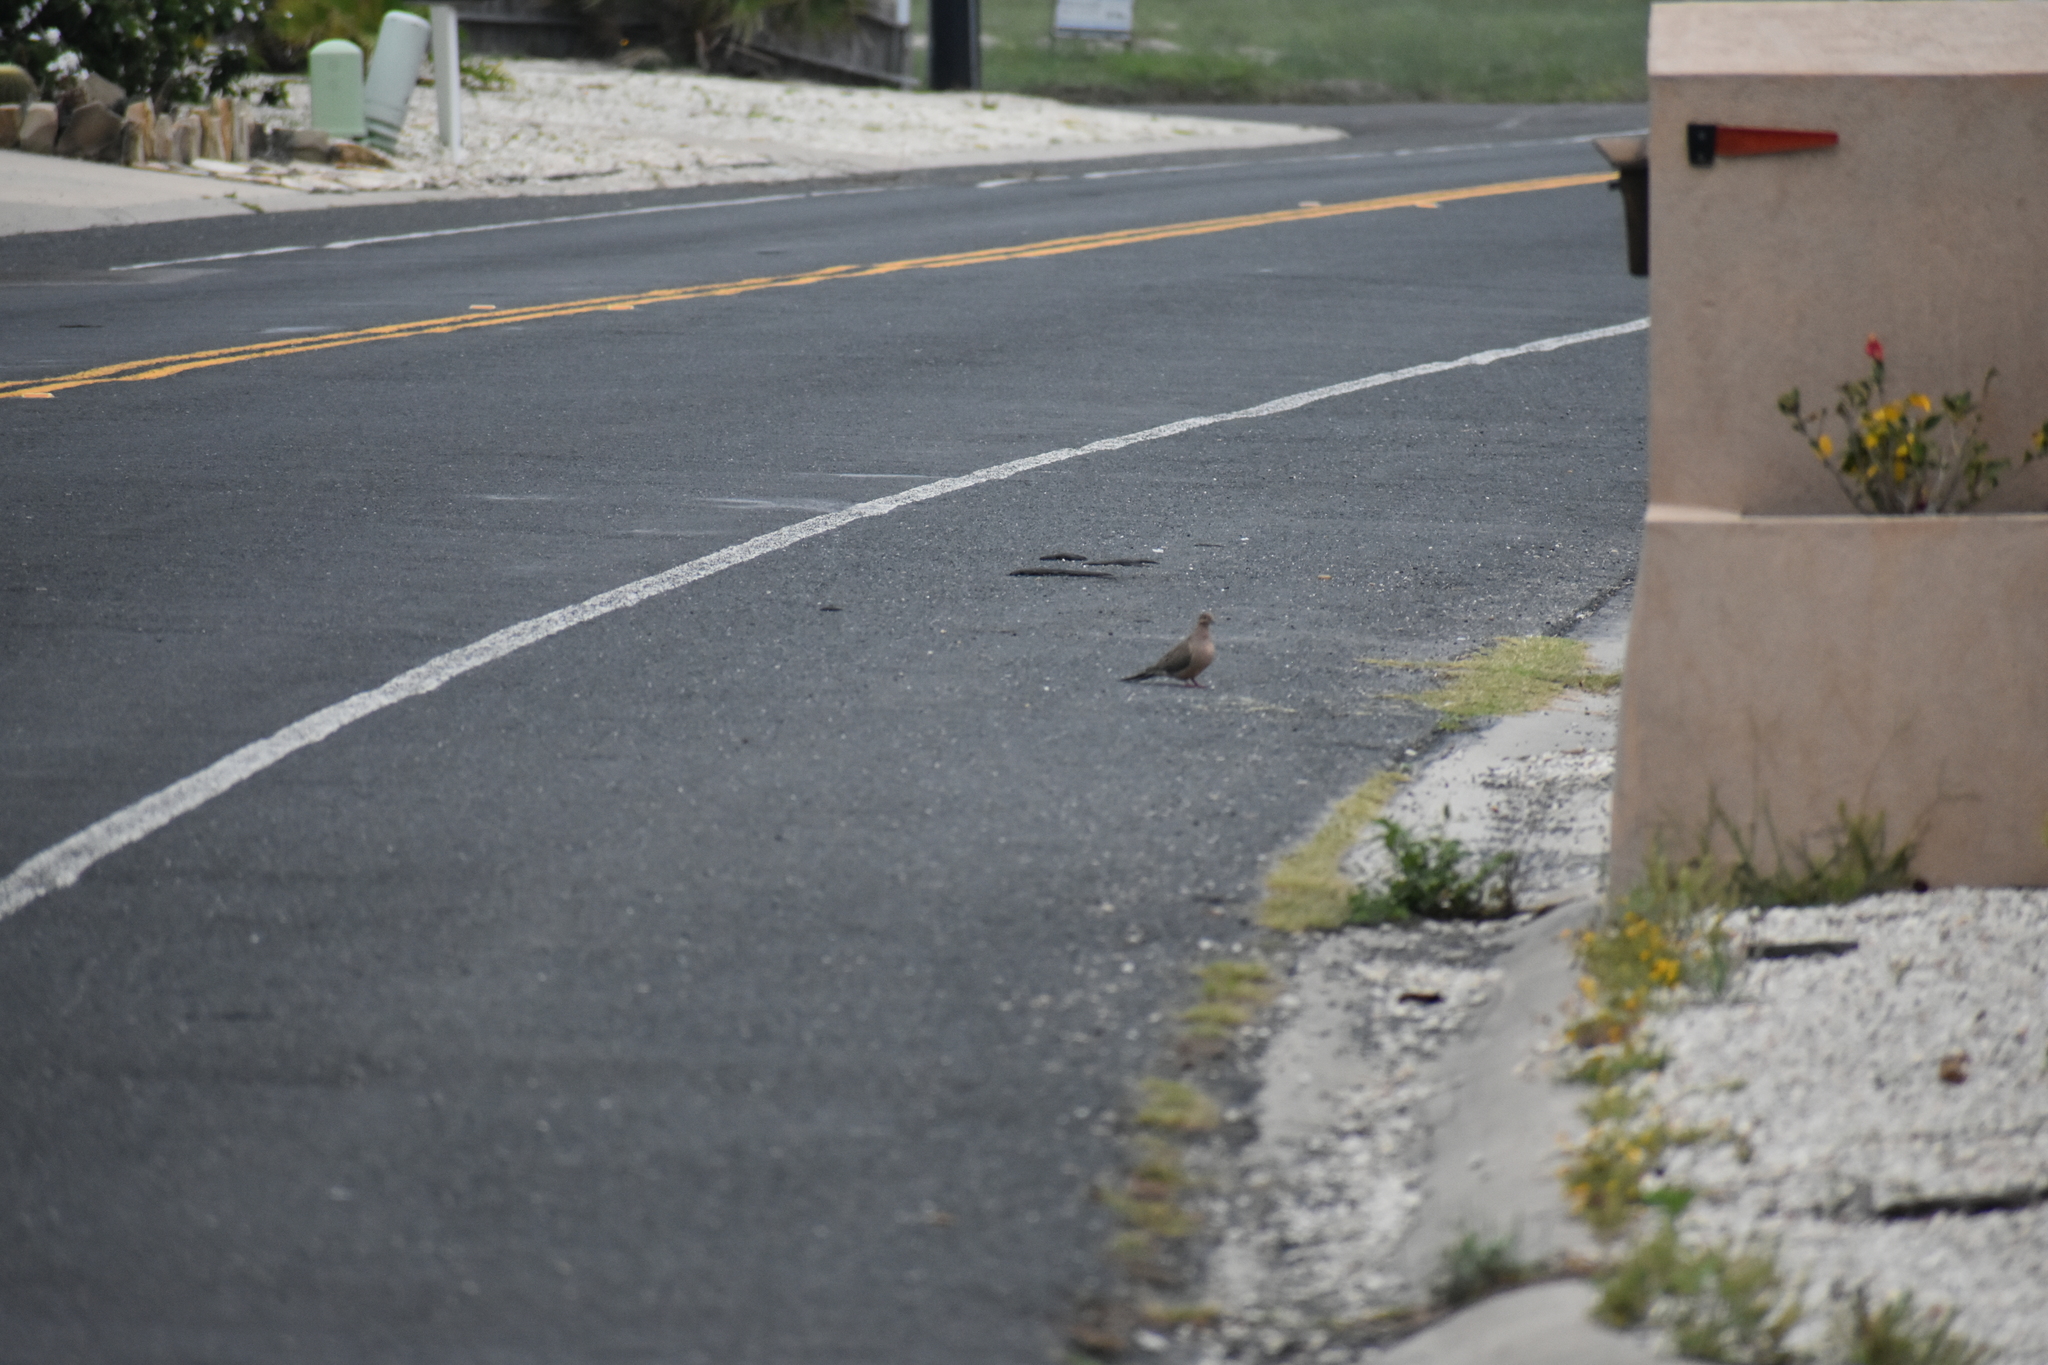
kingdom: Animalia
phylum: Chordata
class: Aves
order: Columbiformes
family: Columbidae
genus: Zenaida
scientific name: Zenaida macroura
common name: Mourning dove
